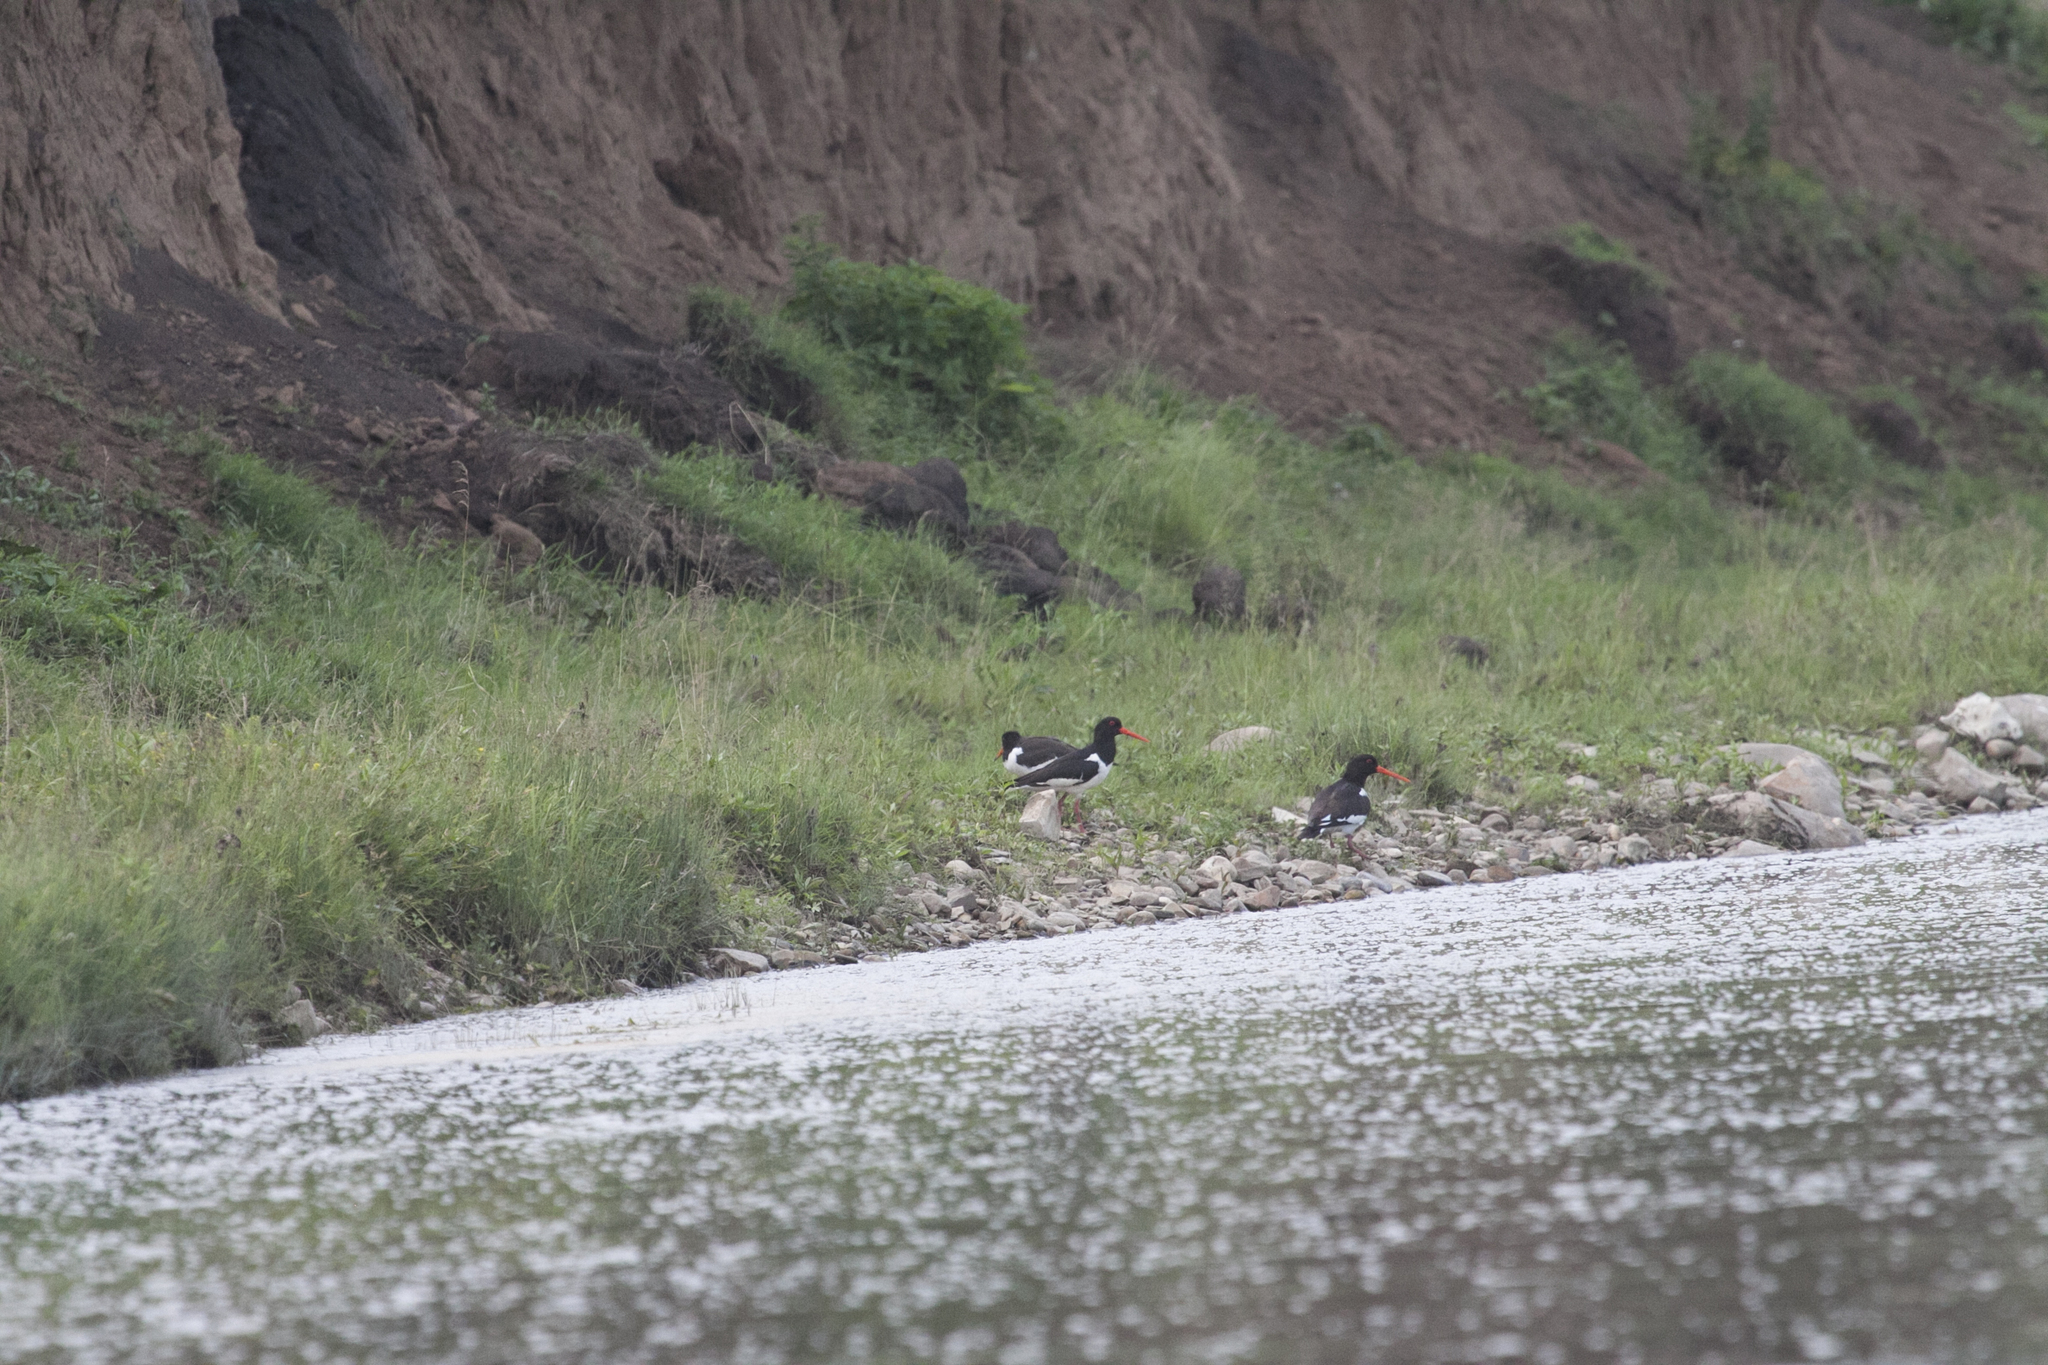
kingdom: Animalia
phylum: Chordata
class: Aves
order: Charadriiformes
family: Haematopodidae
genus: Haematopus
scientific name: Haematopus ostralegus
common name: Eurasian oystercatcher
